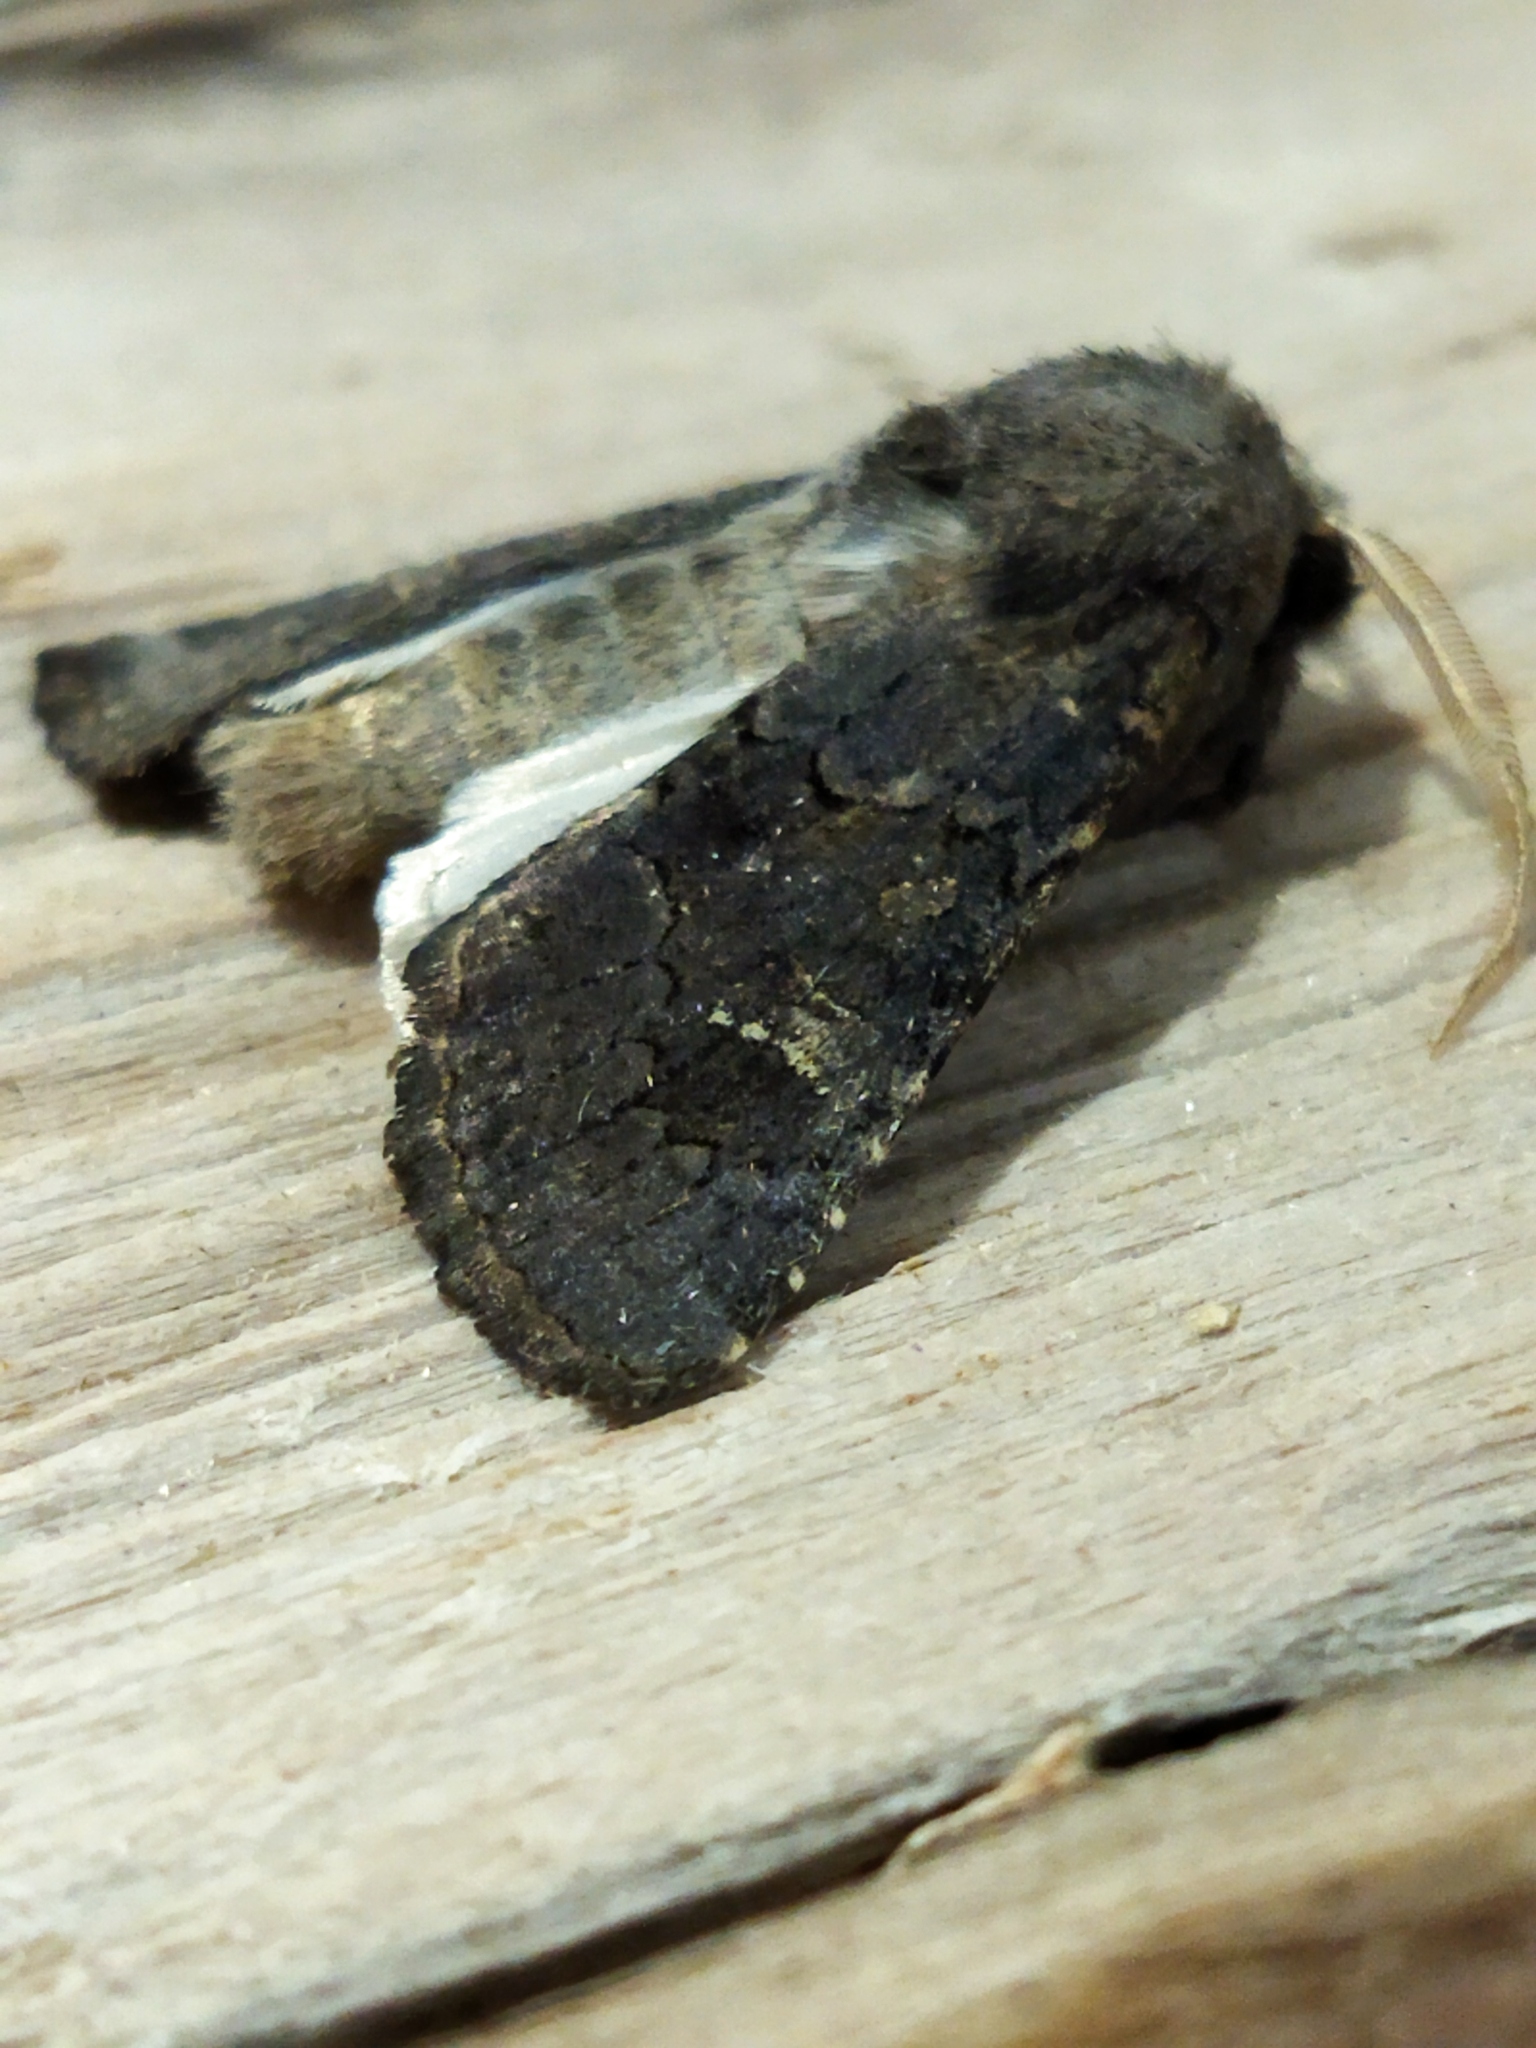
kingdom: Animalia
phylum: Arthropoda
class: Insecta
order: Lepidoptera
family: Noctuidae
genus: Aporophyla
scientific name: Aporophyla lutulenta
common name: Deep-brown dart
